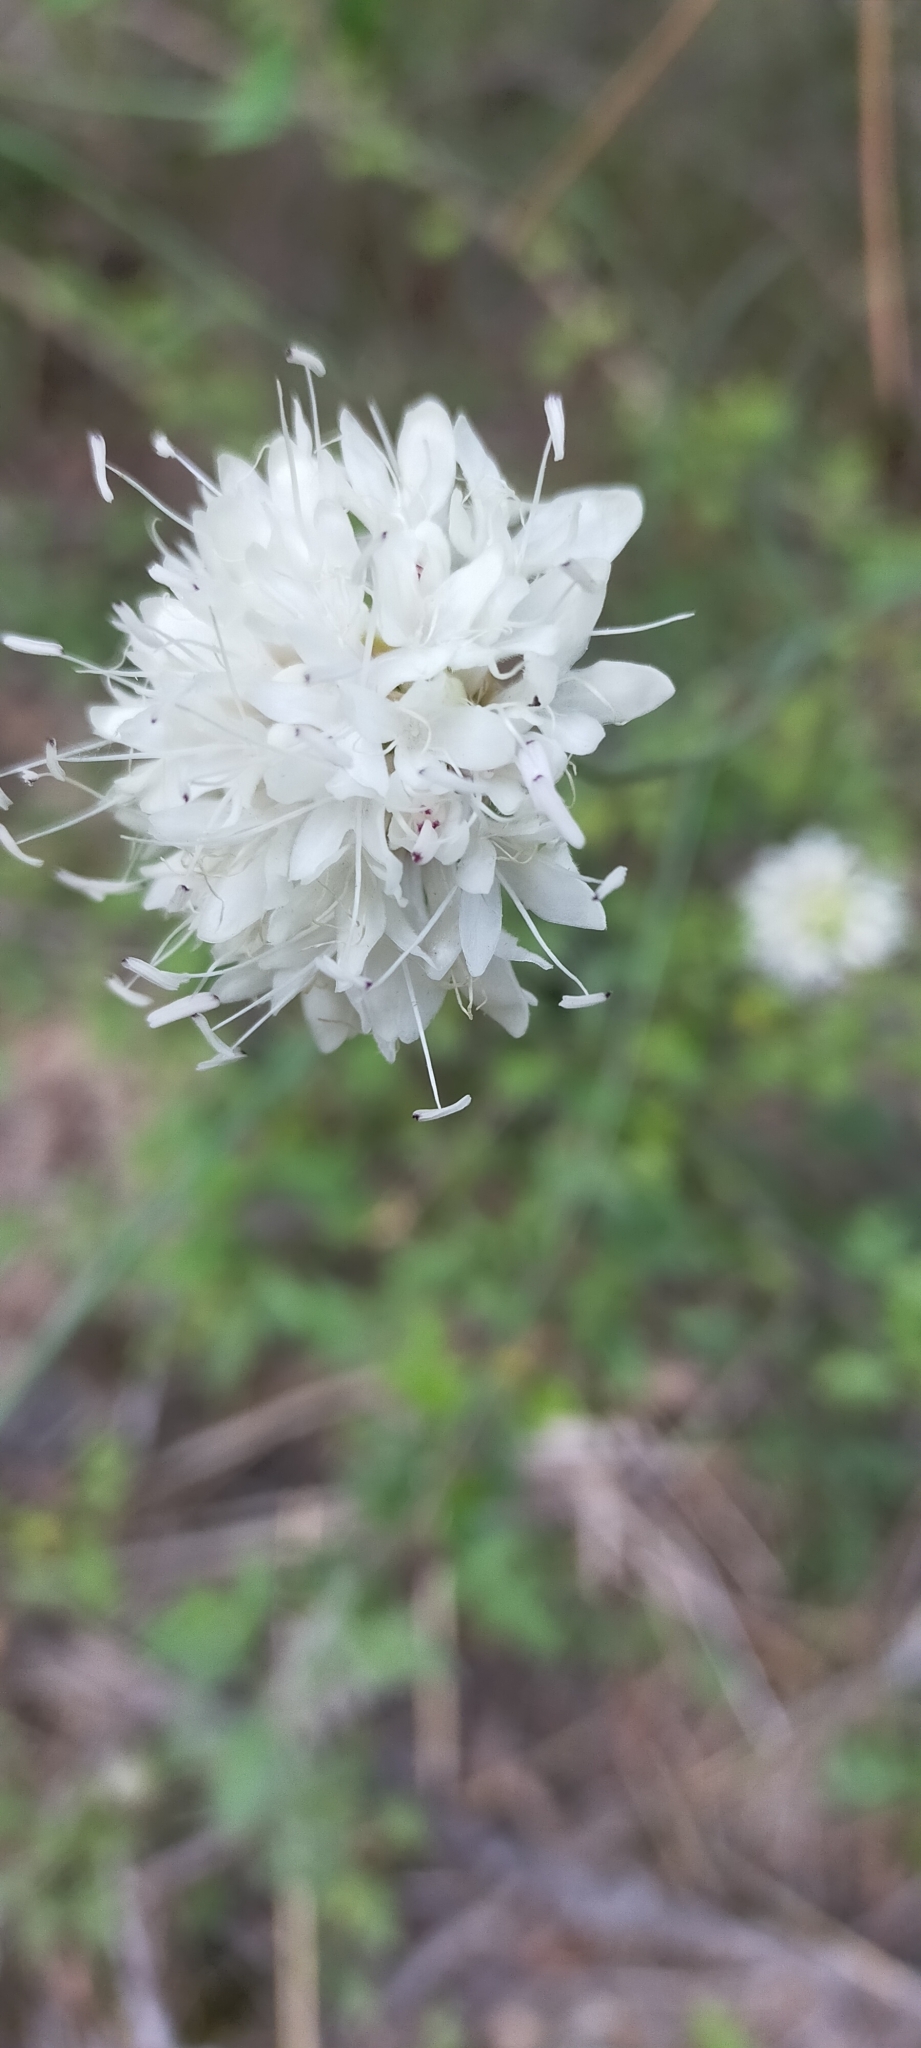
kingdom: Plantae
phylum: Tracheophyta
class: Magnoliopsida
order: Dipsacales
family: Caprifoliaceae
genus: Cephalaria
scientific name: Cephalaria leucantha
